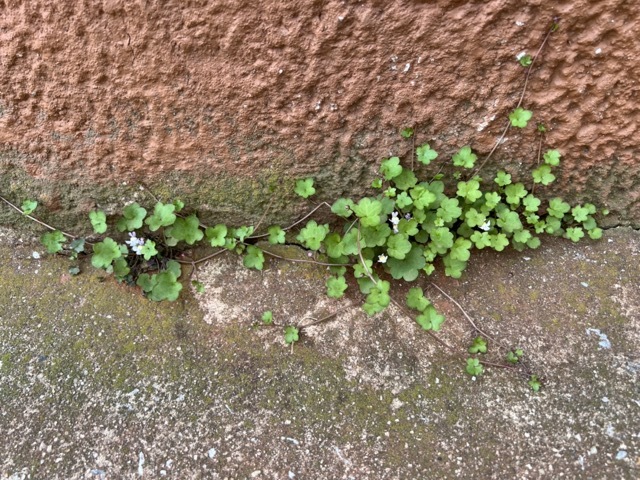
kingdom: Plantae
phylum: Tracheophyta
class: Magnoliopsida
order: Lamiales
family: Plantaginaceae
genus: Cymbalaria
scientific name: Cymbalaria muralis
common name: Ivy-leaved toadflax
